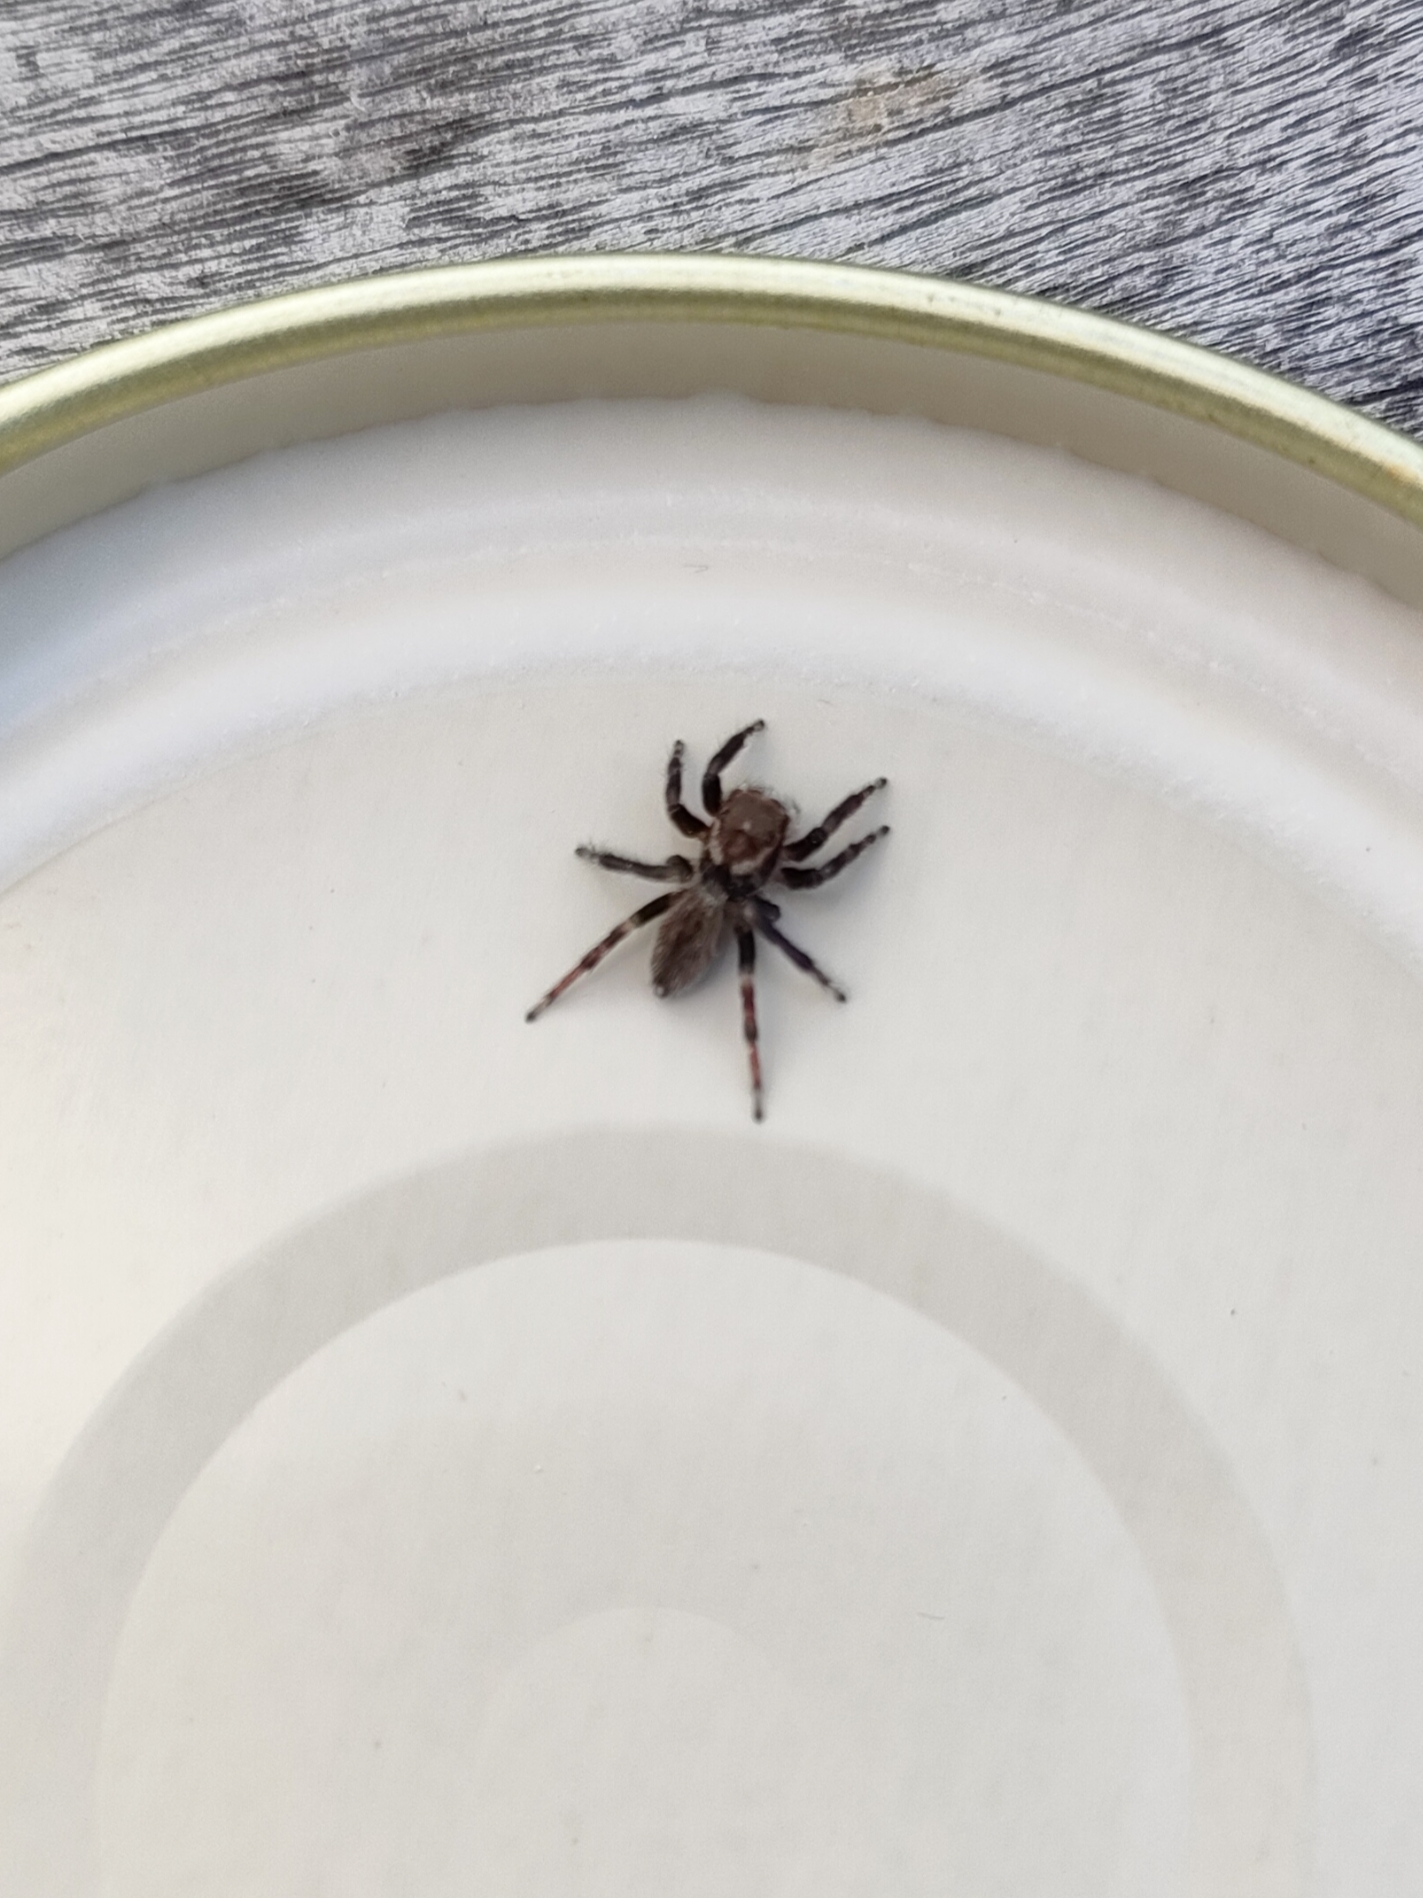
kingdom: Animalia
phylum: Arthropoda
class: Arachnida
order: Araneae
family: Salticidae
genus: Maratus
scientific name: Maratus griseus
